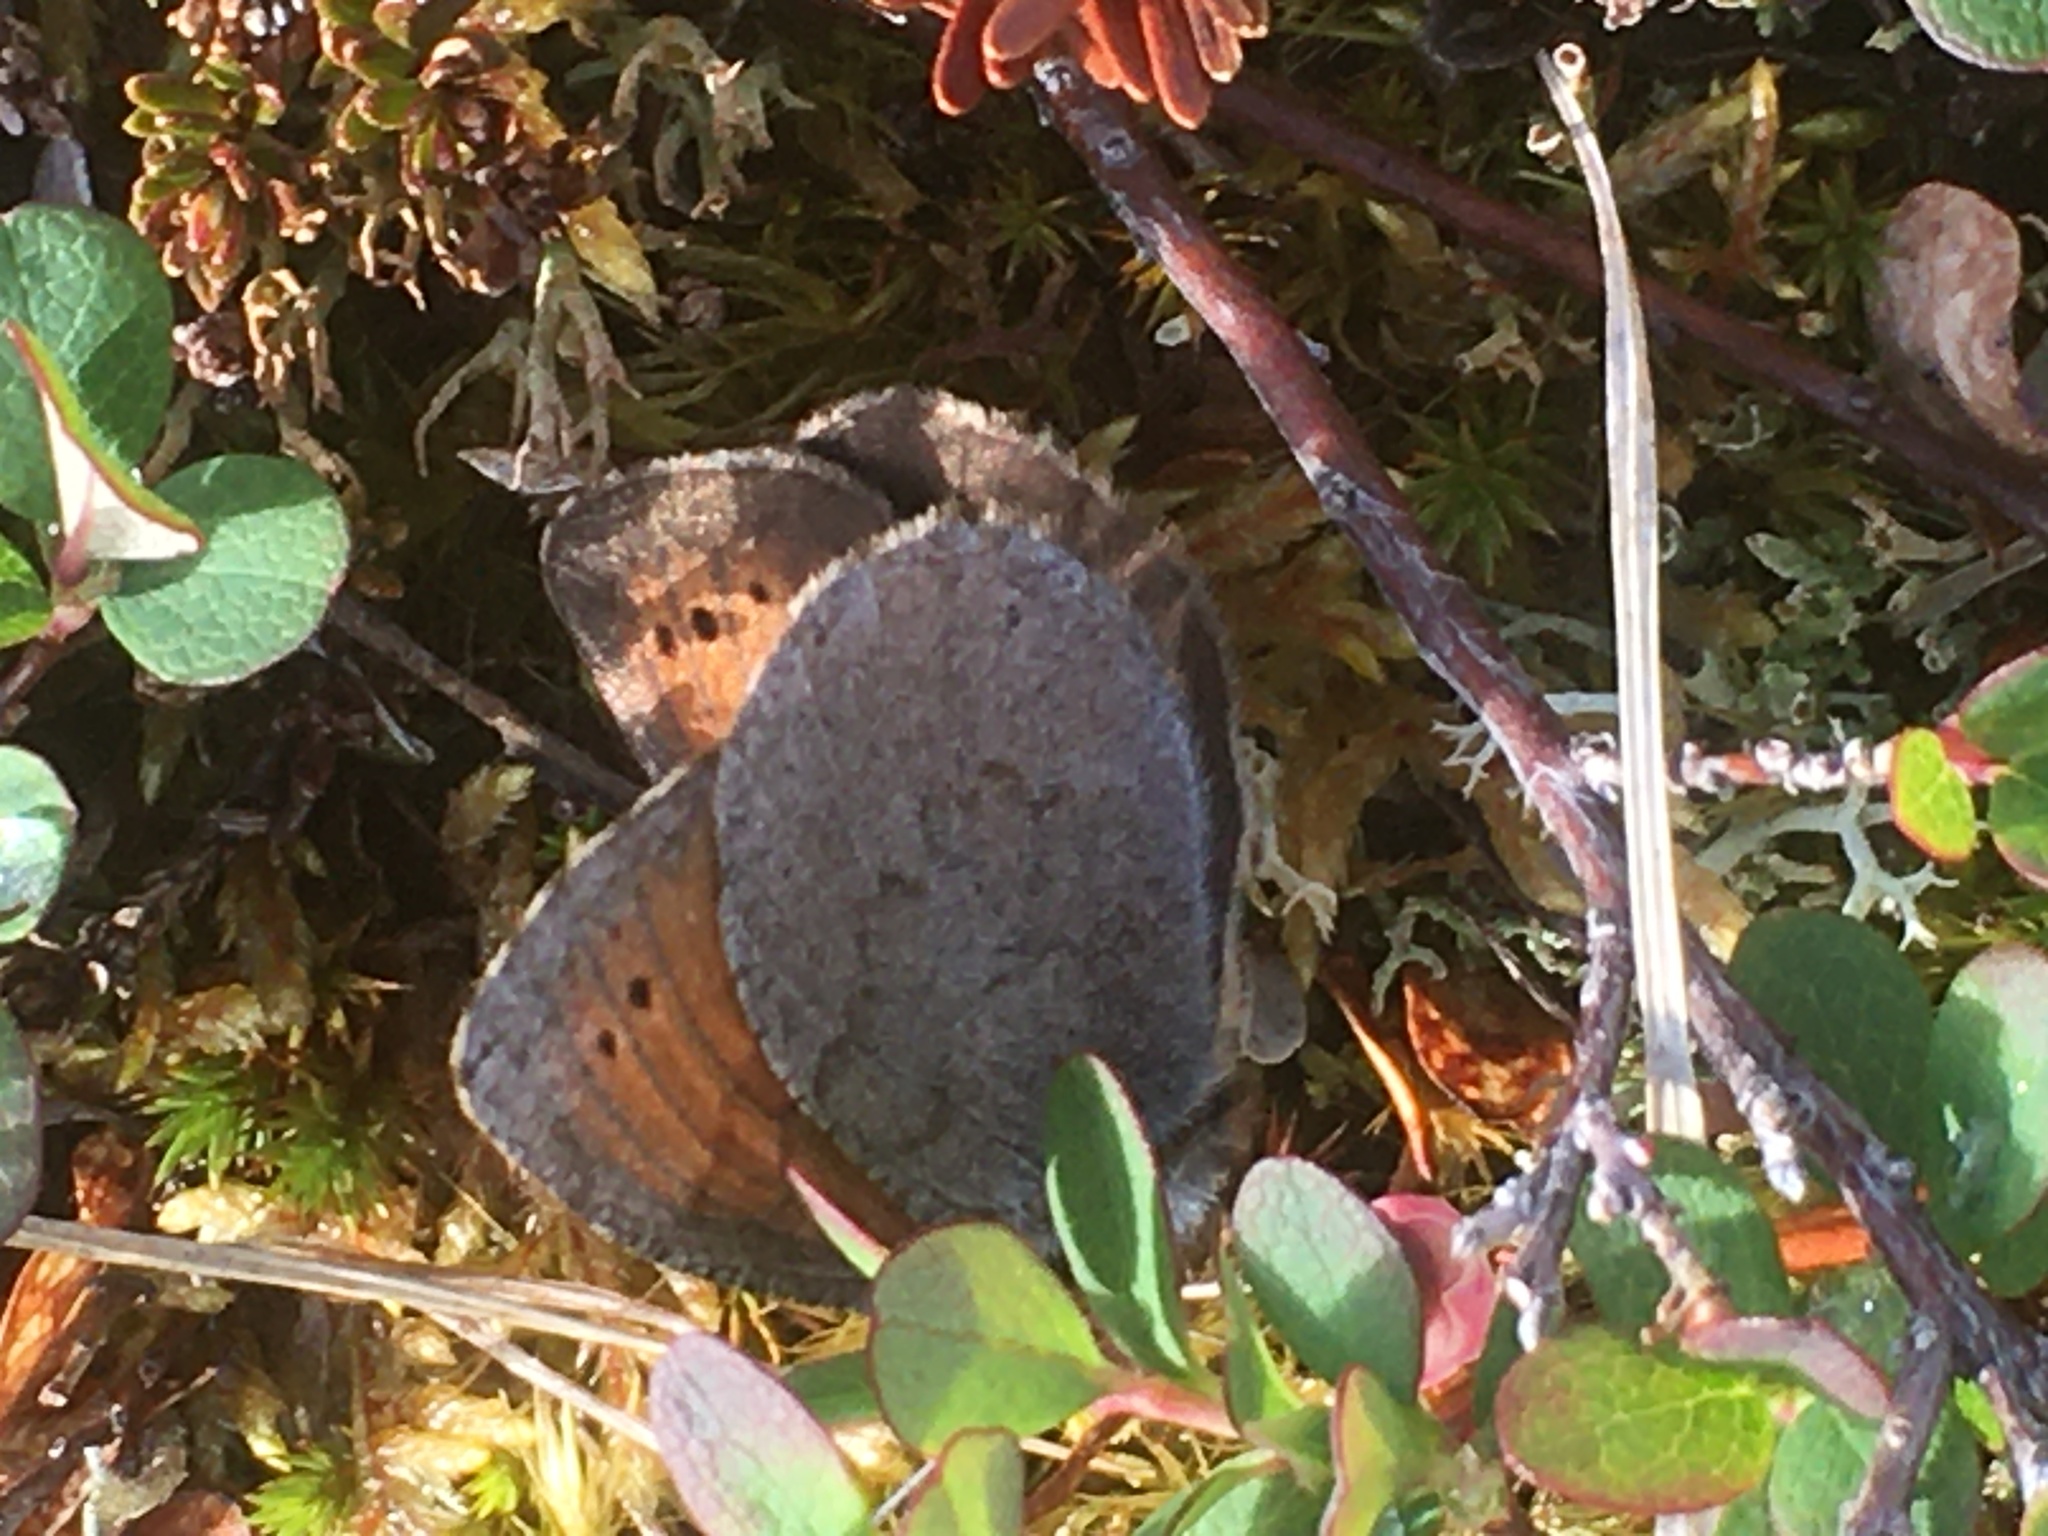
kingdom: Animalia
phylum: Arthropoda
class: Insecta
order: Lepidoptera
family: Nymphalidae
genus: Erebia
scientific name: Erebia pandrose
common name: Dewy ringlet
